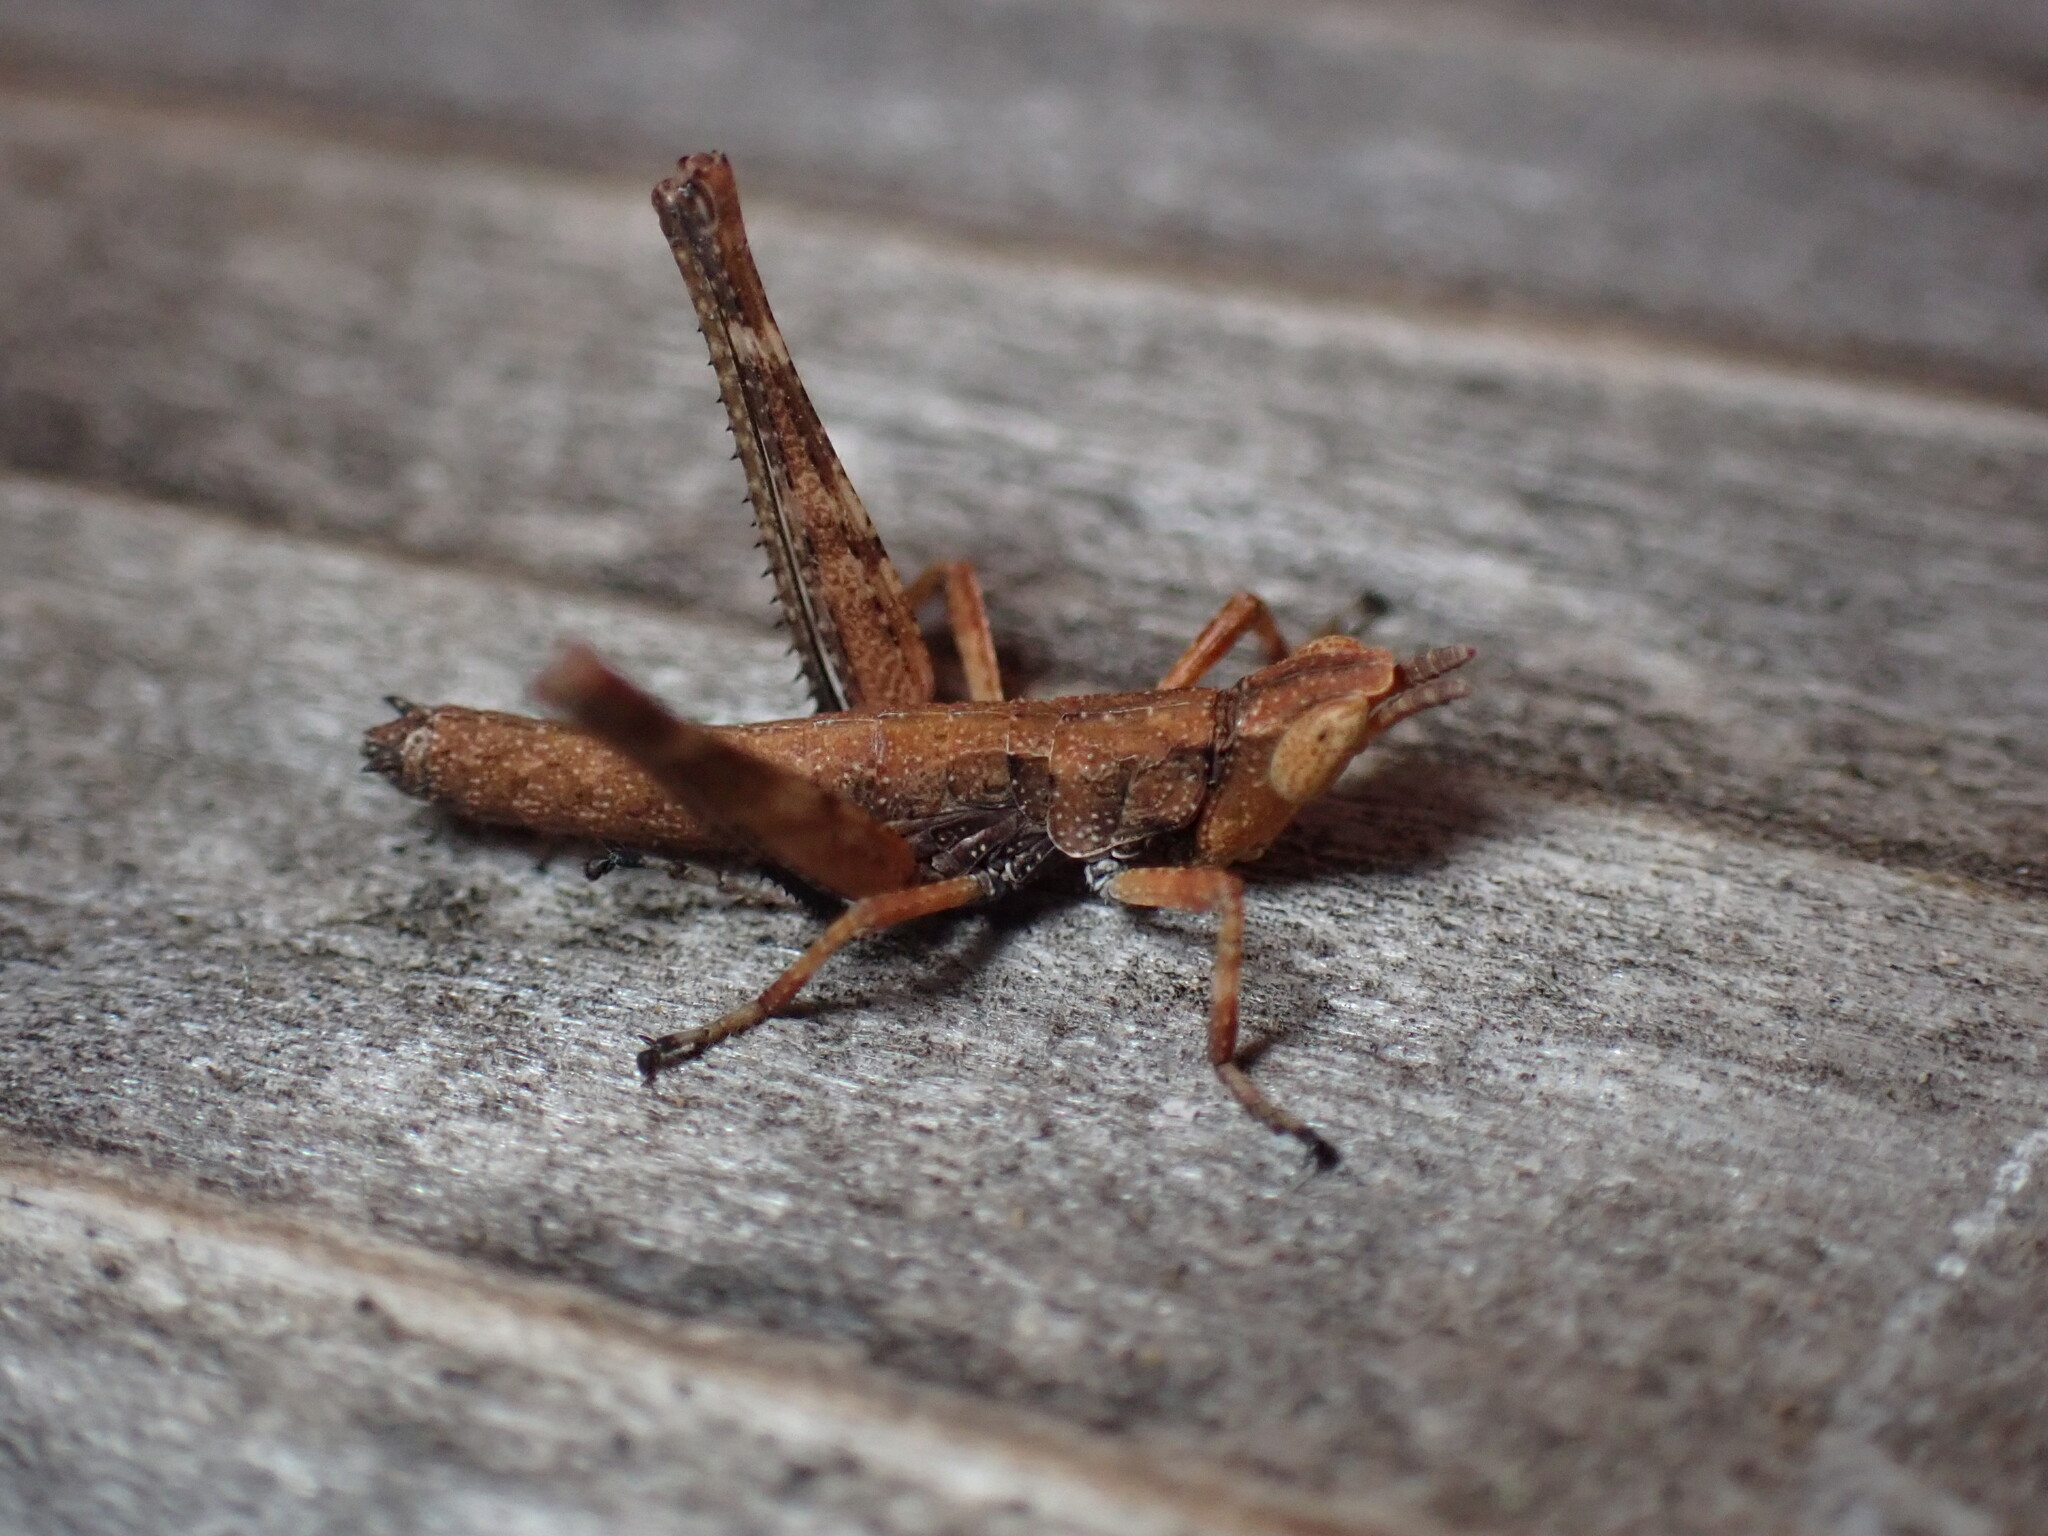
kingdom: Animalia
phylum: Arthropoda
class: Insecta
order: Orthoptera
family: Eumastacidae
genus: Morsea
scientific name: Morsea tamalpaisensis
